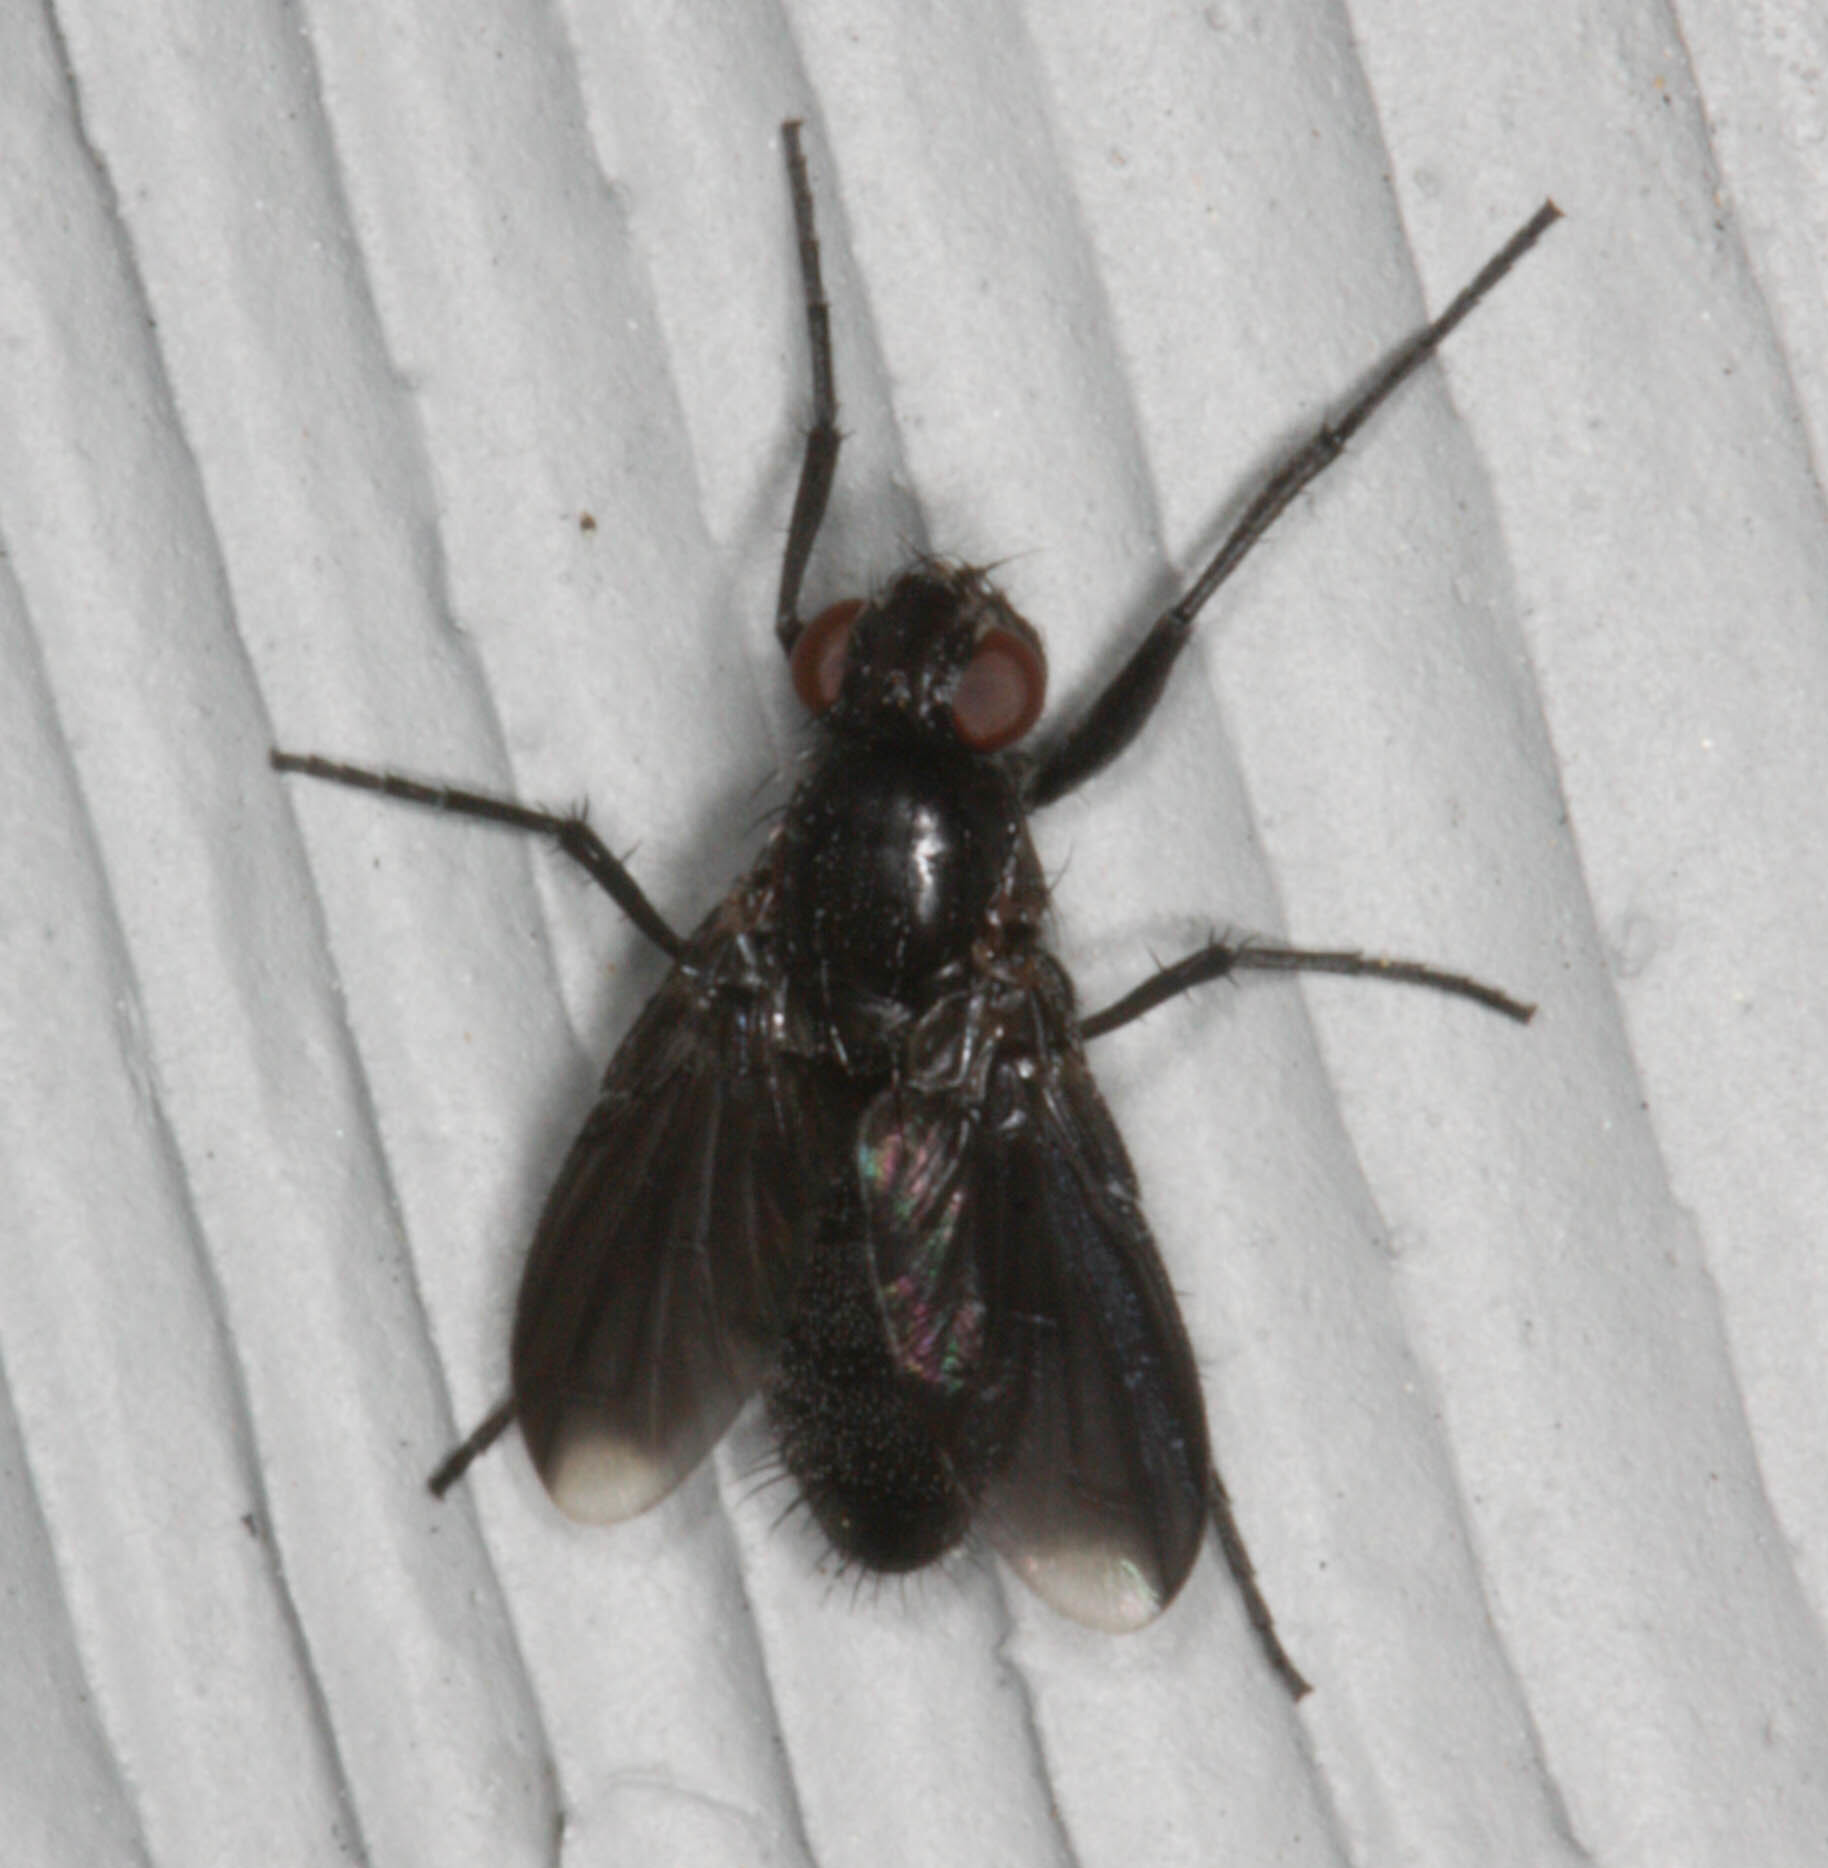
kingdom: Animalia
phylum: Arthropoda
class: Insecta
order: Diptera
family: Calliphoridae
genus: Melanophora
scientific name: Melanophora roralis
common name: Smoky-winged woodlouse-fly
